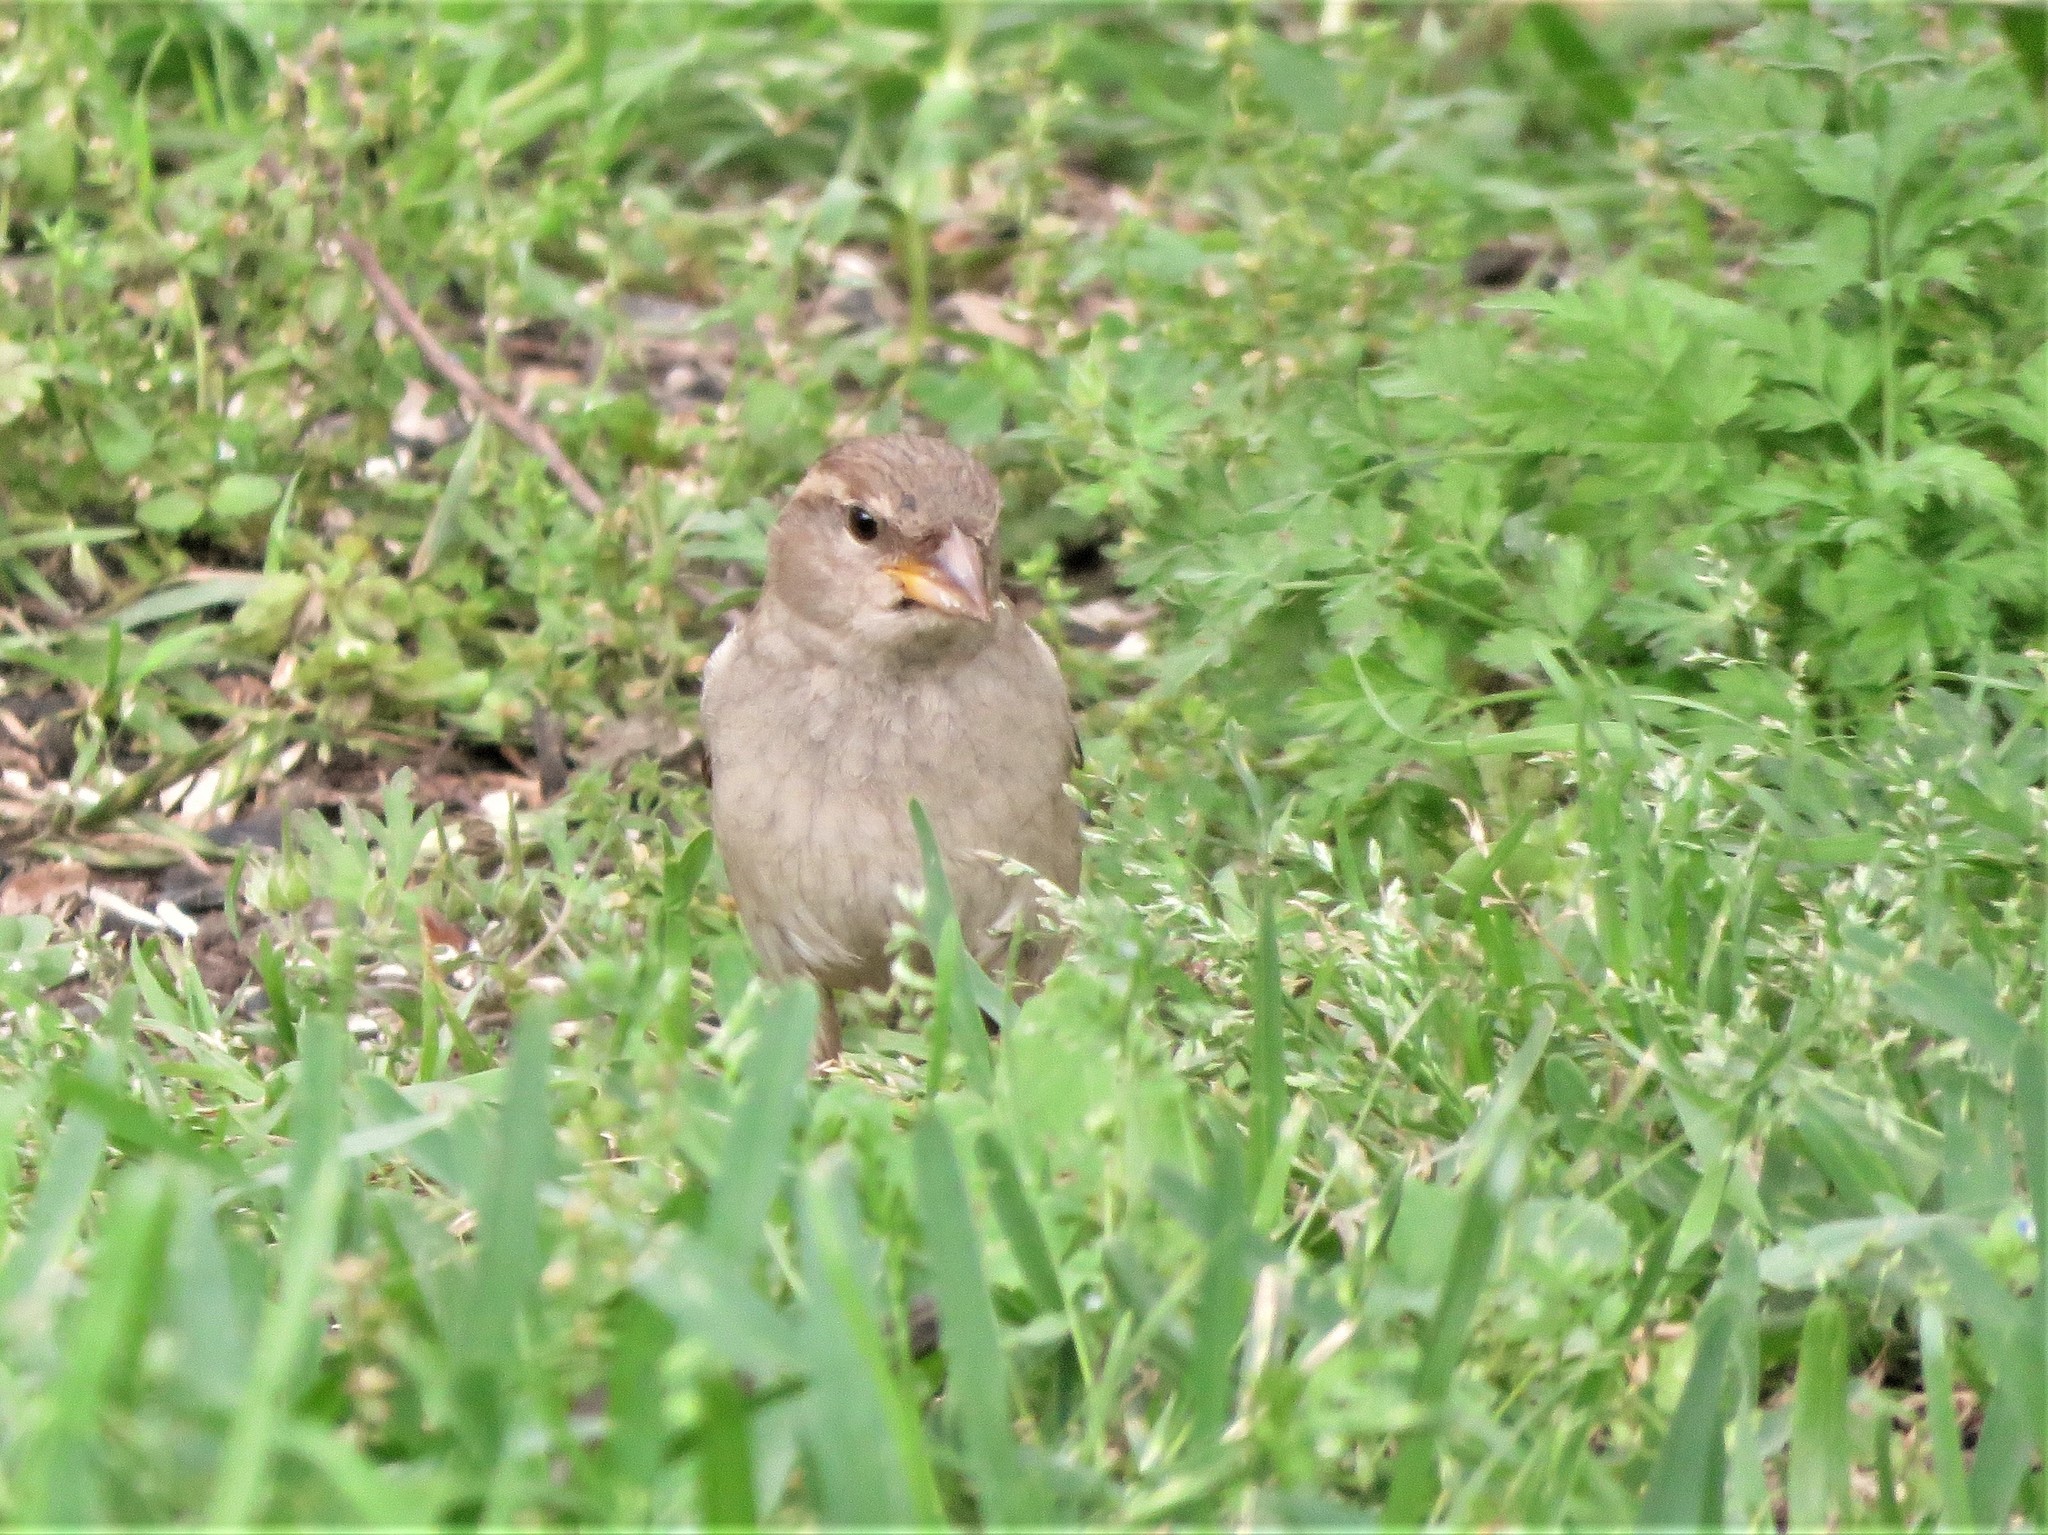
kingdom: Animalia
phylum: Chordata
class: Aves
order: Passeriformes
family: Passeridae
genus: Passer
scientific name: Passer domesticus
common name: House sparrow
